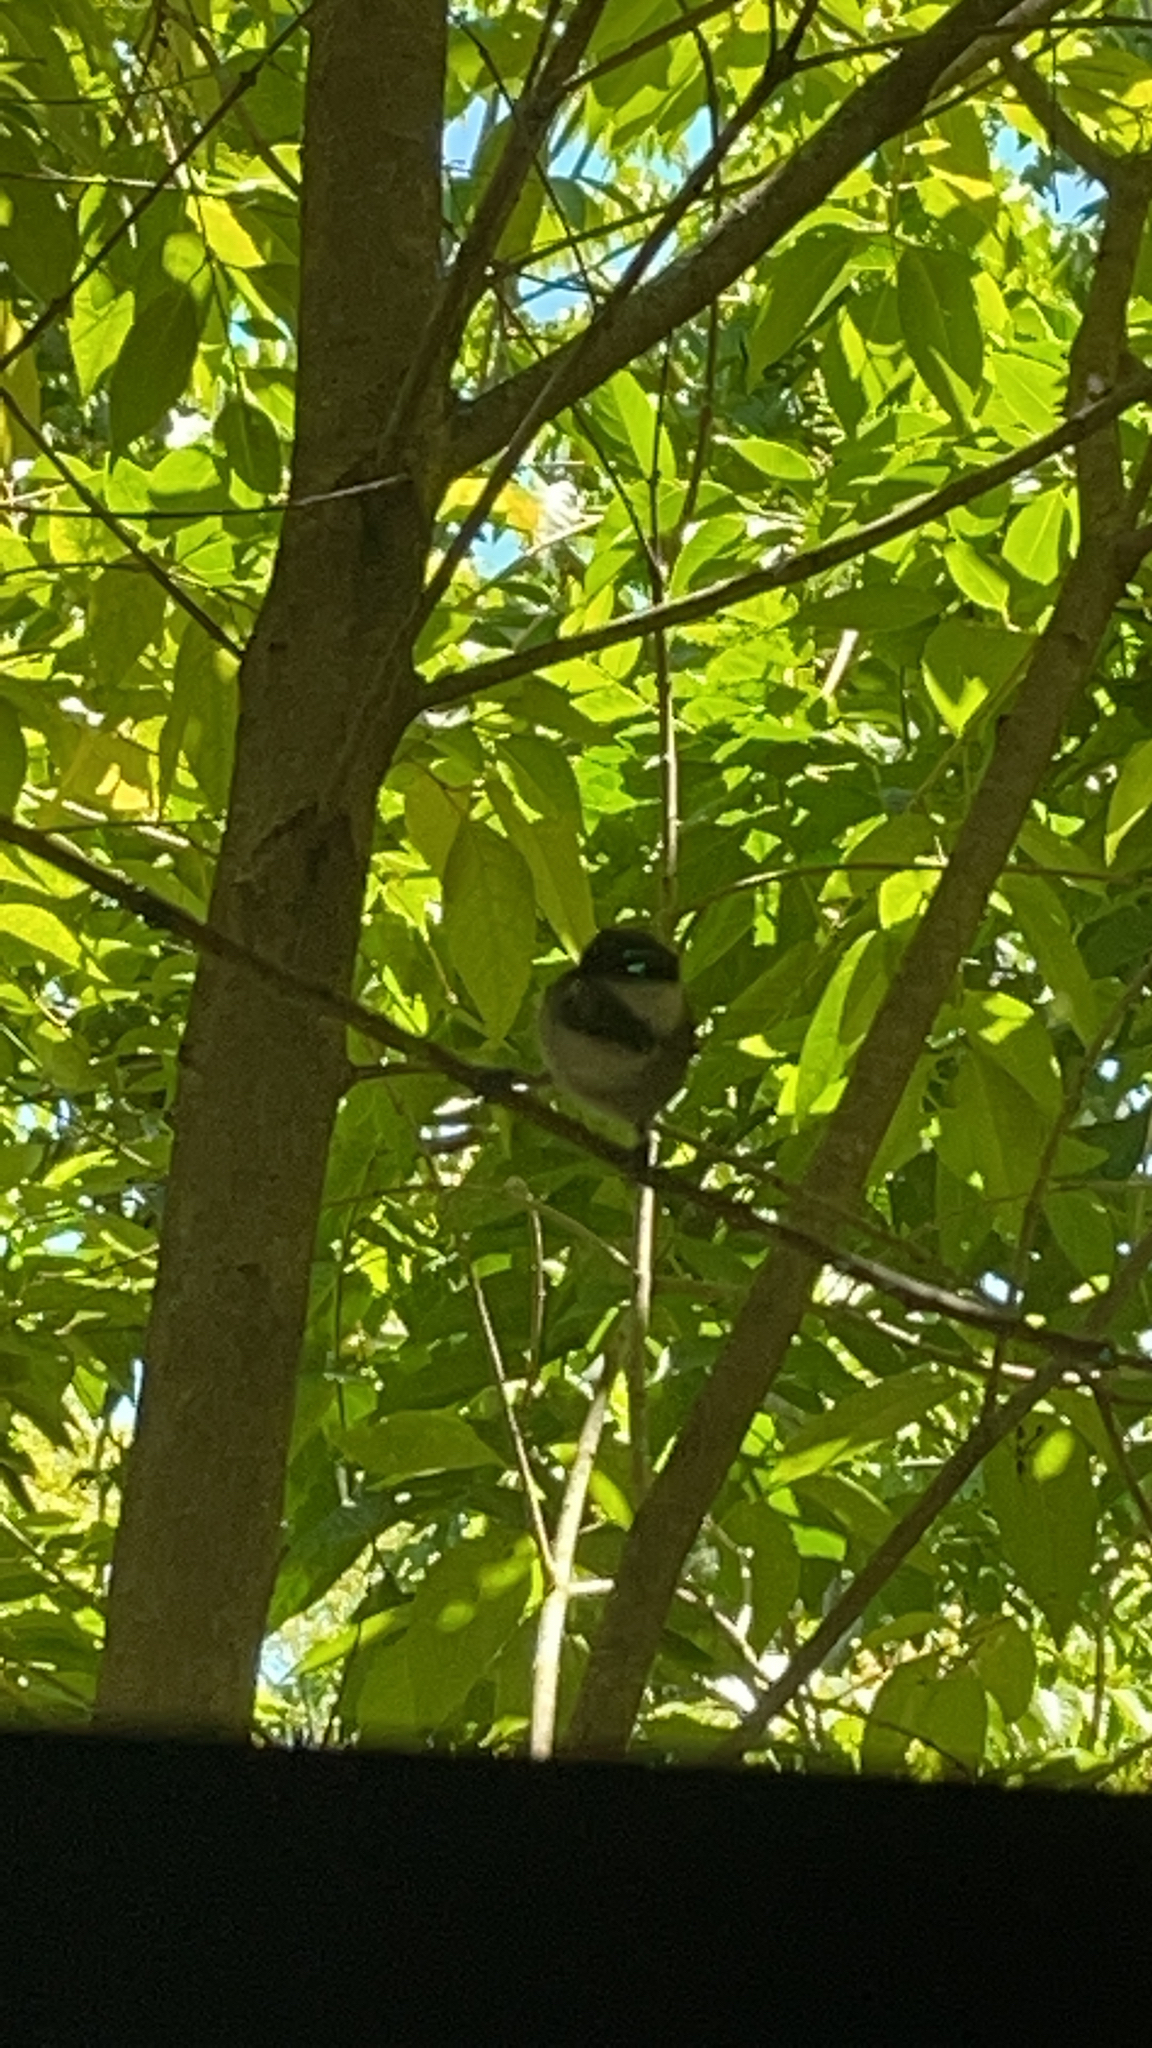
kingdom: Animalia
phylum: Chordata
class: Aves
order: Passeriformes
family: Paridae
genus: Poecile
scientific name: Poecile rufescens
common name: Chestnut-backed chickadee
